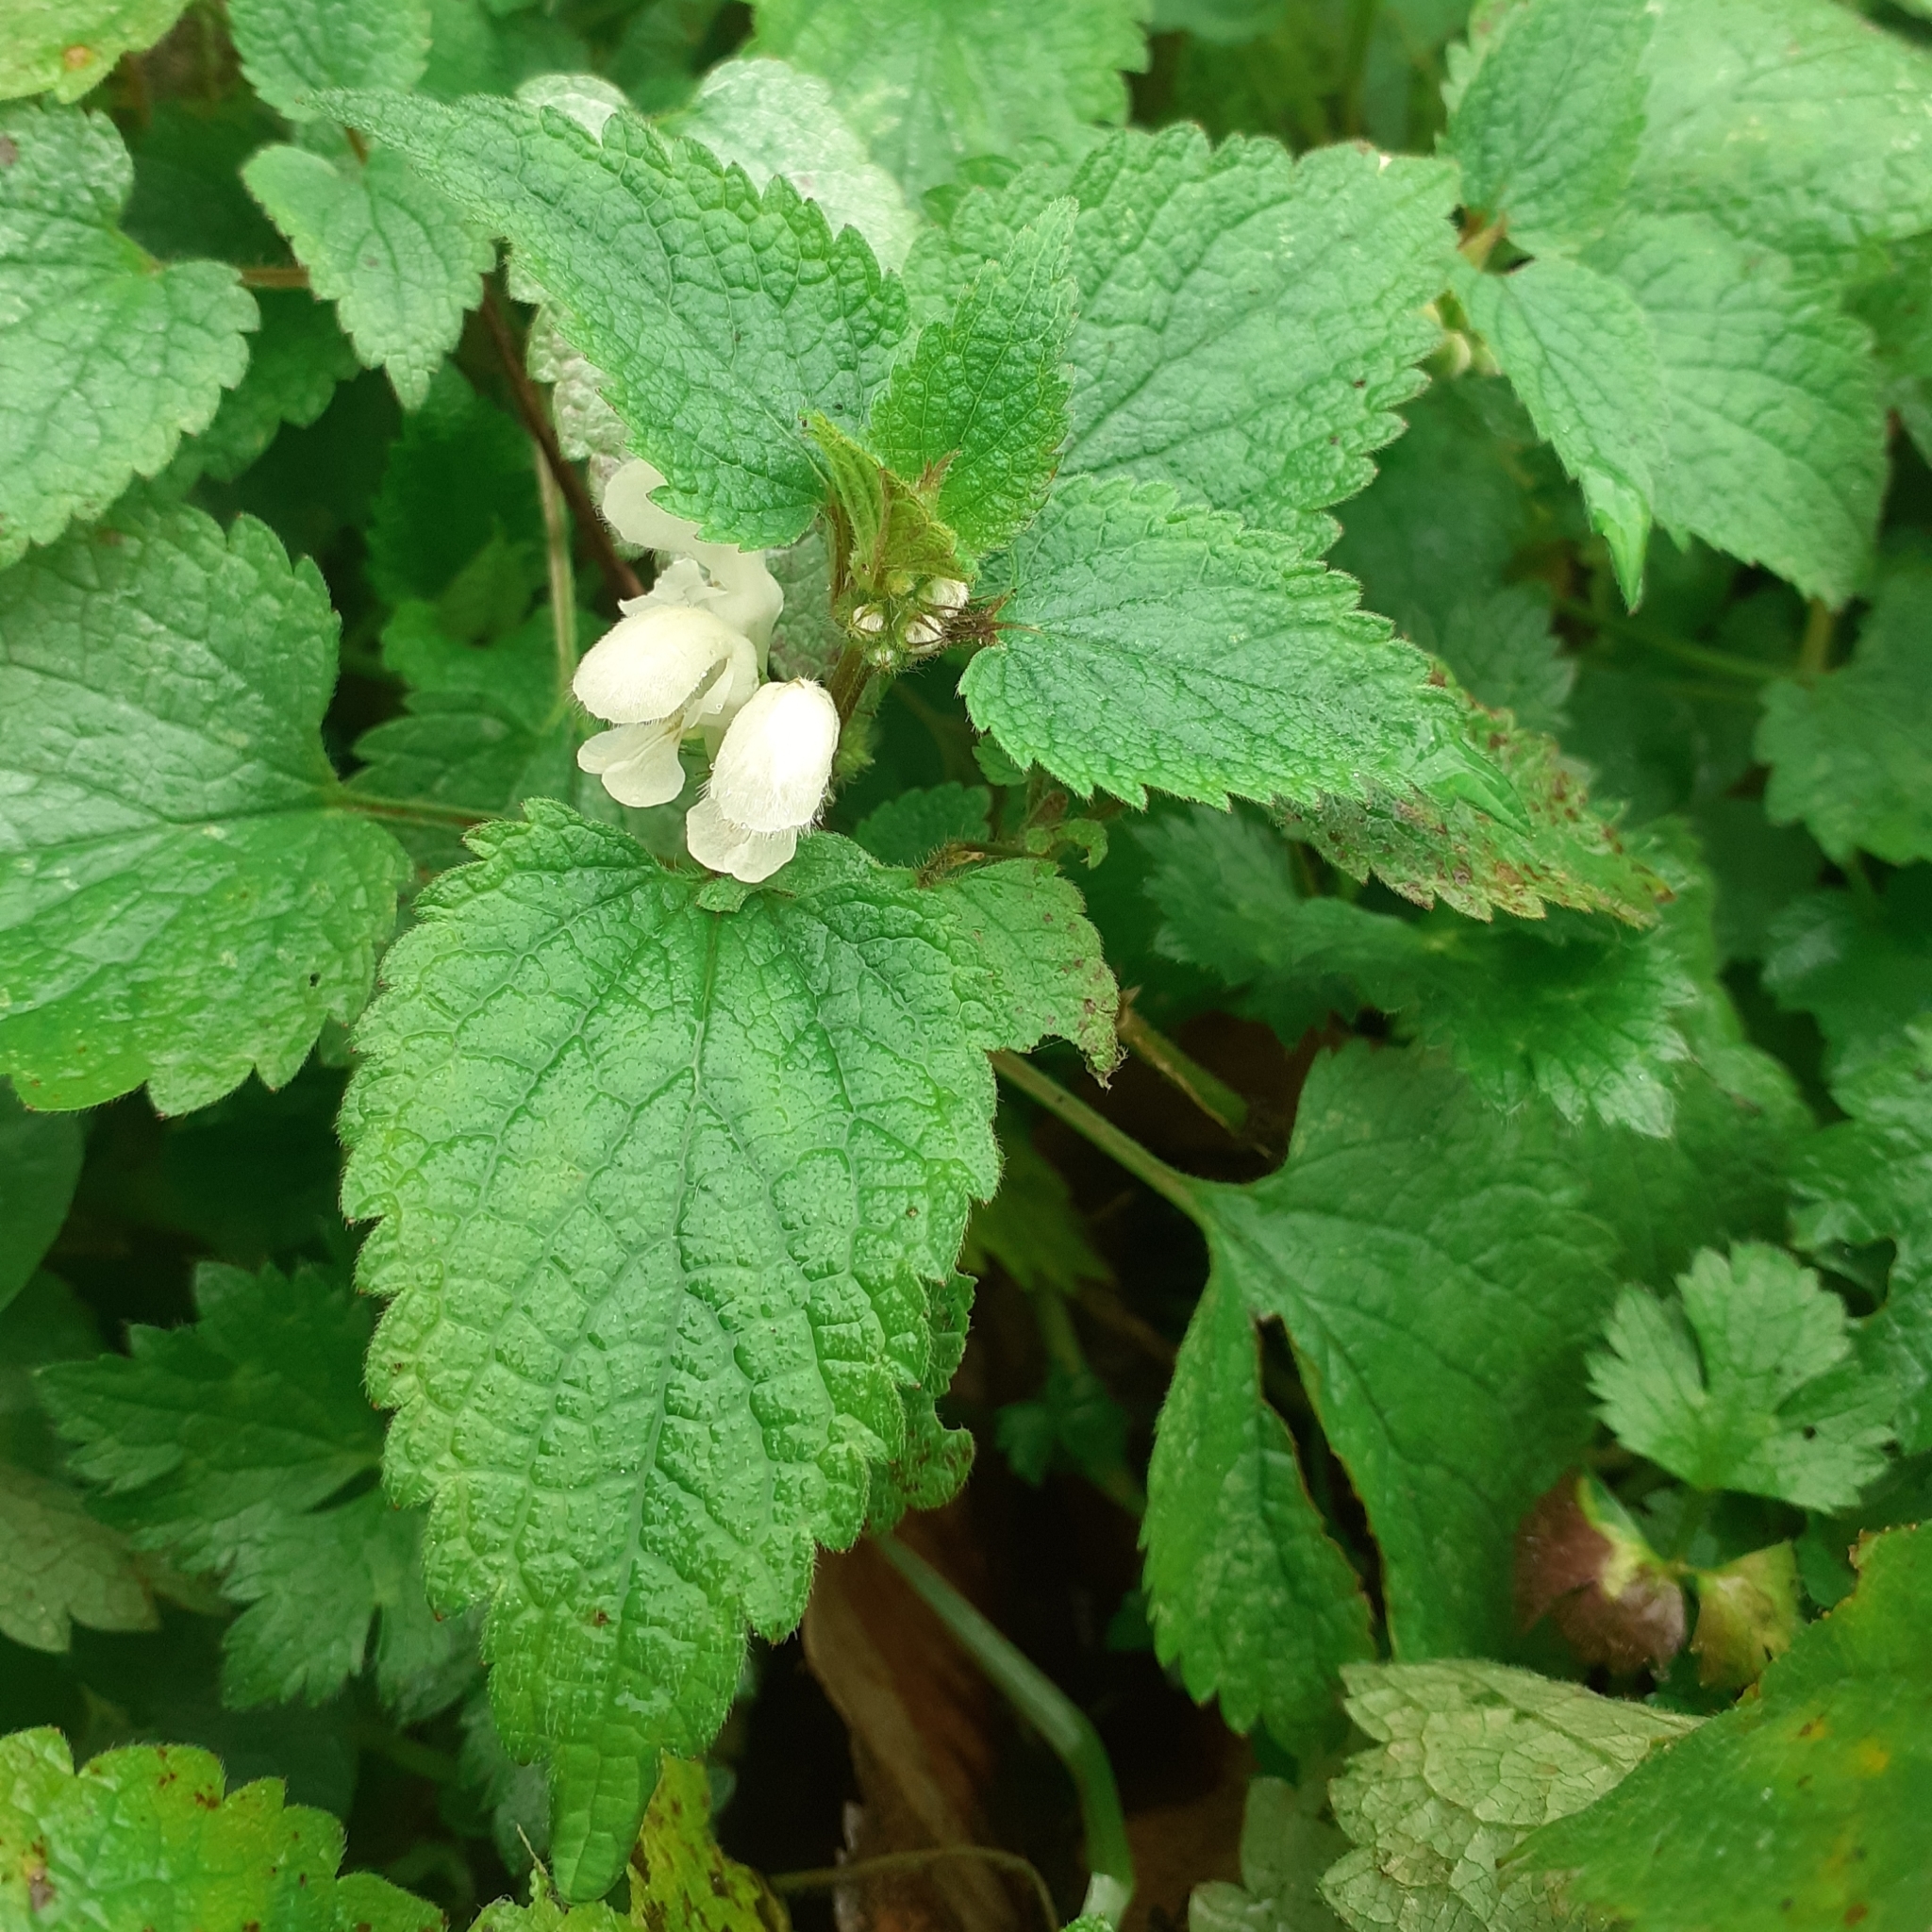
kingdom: Plantae
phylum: Tracheophyta
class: Magnoliopsida
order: Lamiales
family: Lamiaceae
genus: Lamium
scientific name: Lamium album
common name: White dead-nettle
